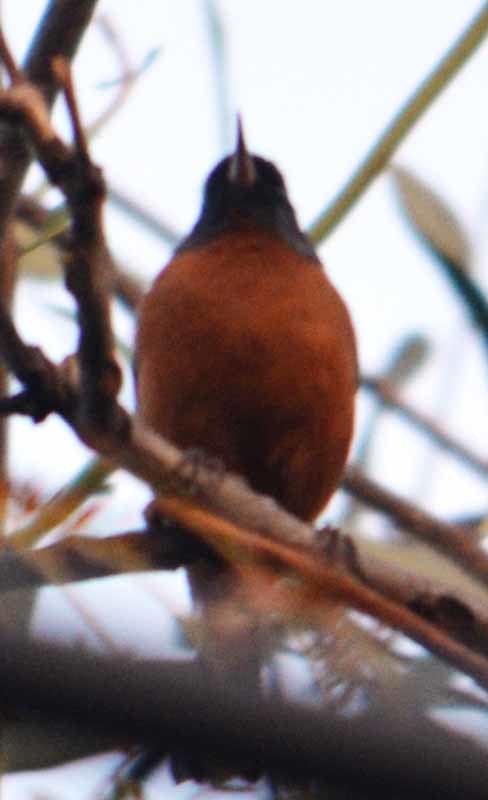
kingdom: Animalia
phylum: Chordata
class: Aves
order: Passeriformes
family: Thraupidae
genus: Diglossa
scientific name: Diglossa baritula
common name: Cinnamon-bellied flowerpiercer
